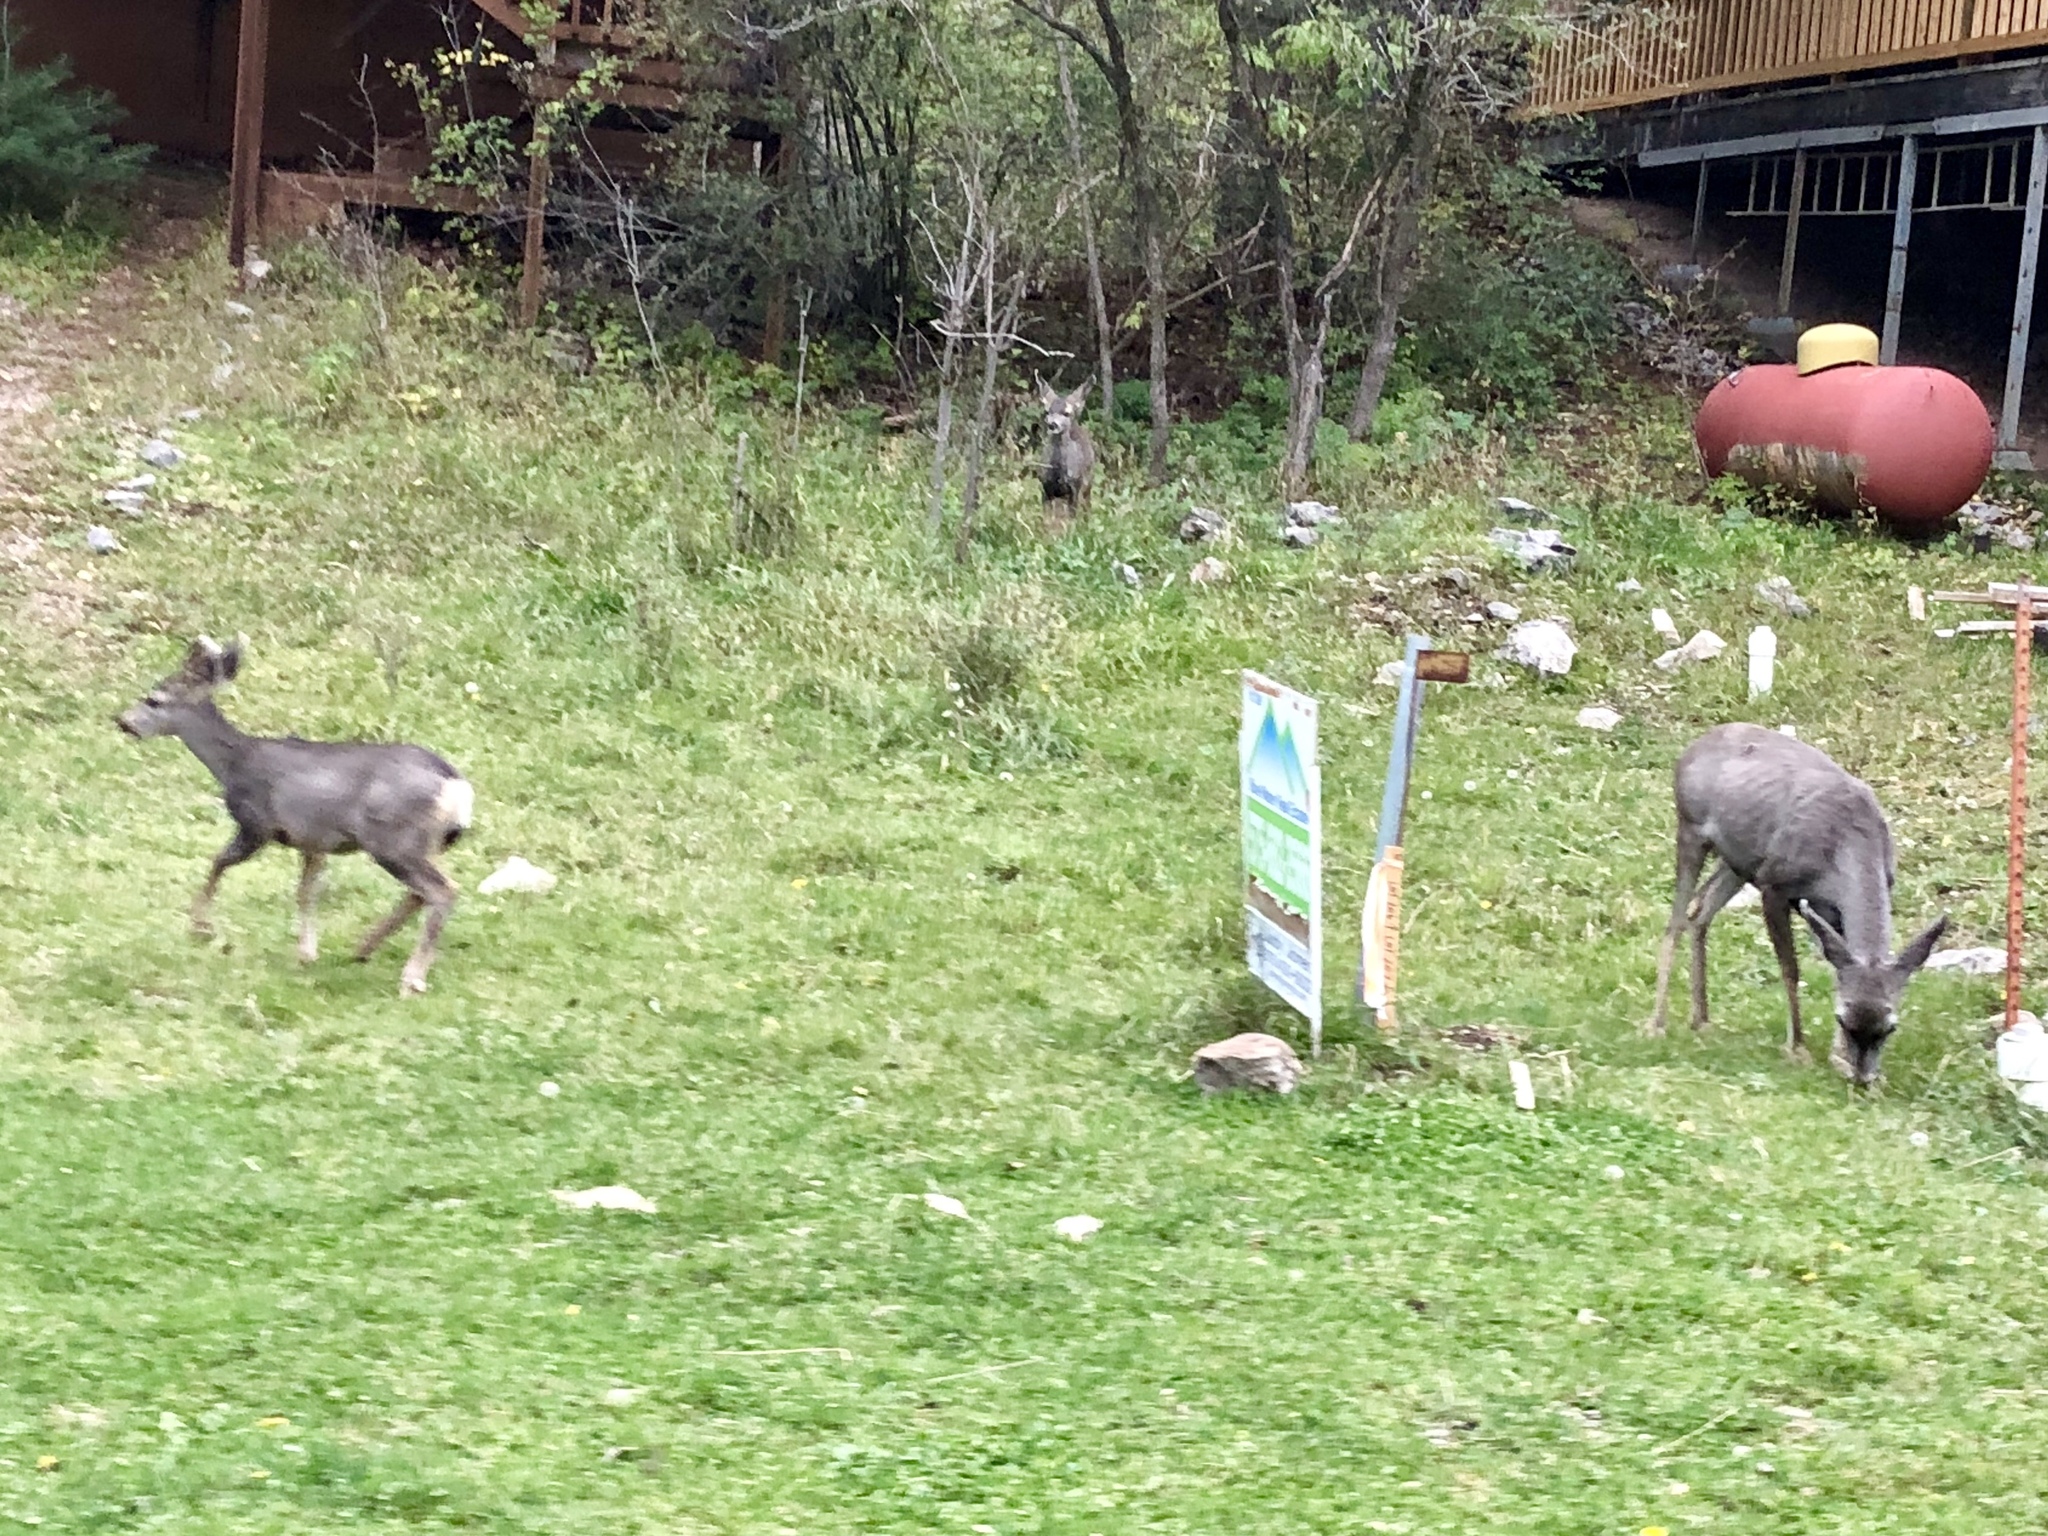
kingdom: Animalia
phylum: Chordata
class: Mammalia
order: Artiodactyla
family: Cervidae
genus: Odocoileus
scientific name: Odocoileus hemionus
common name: Mule deer
